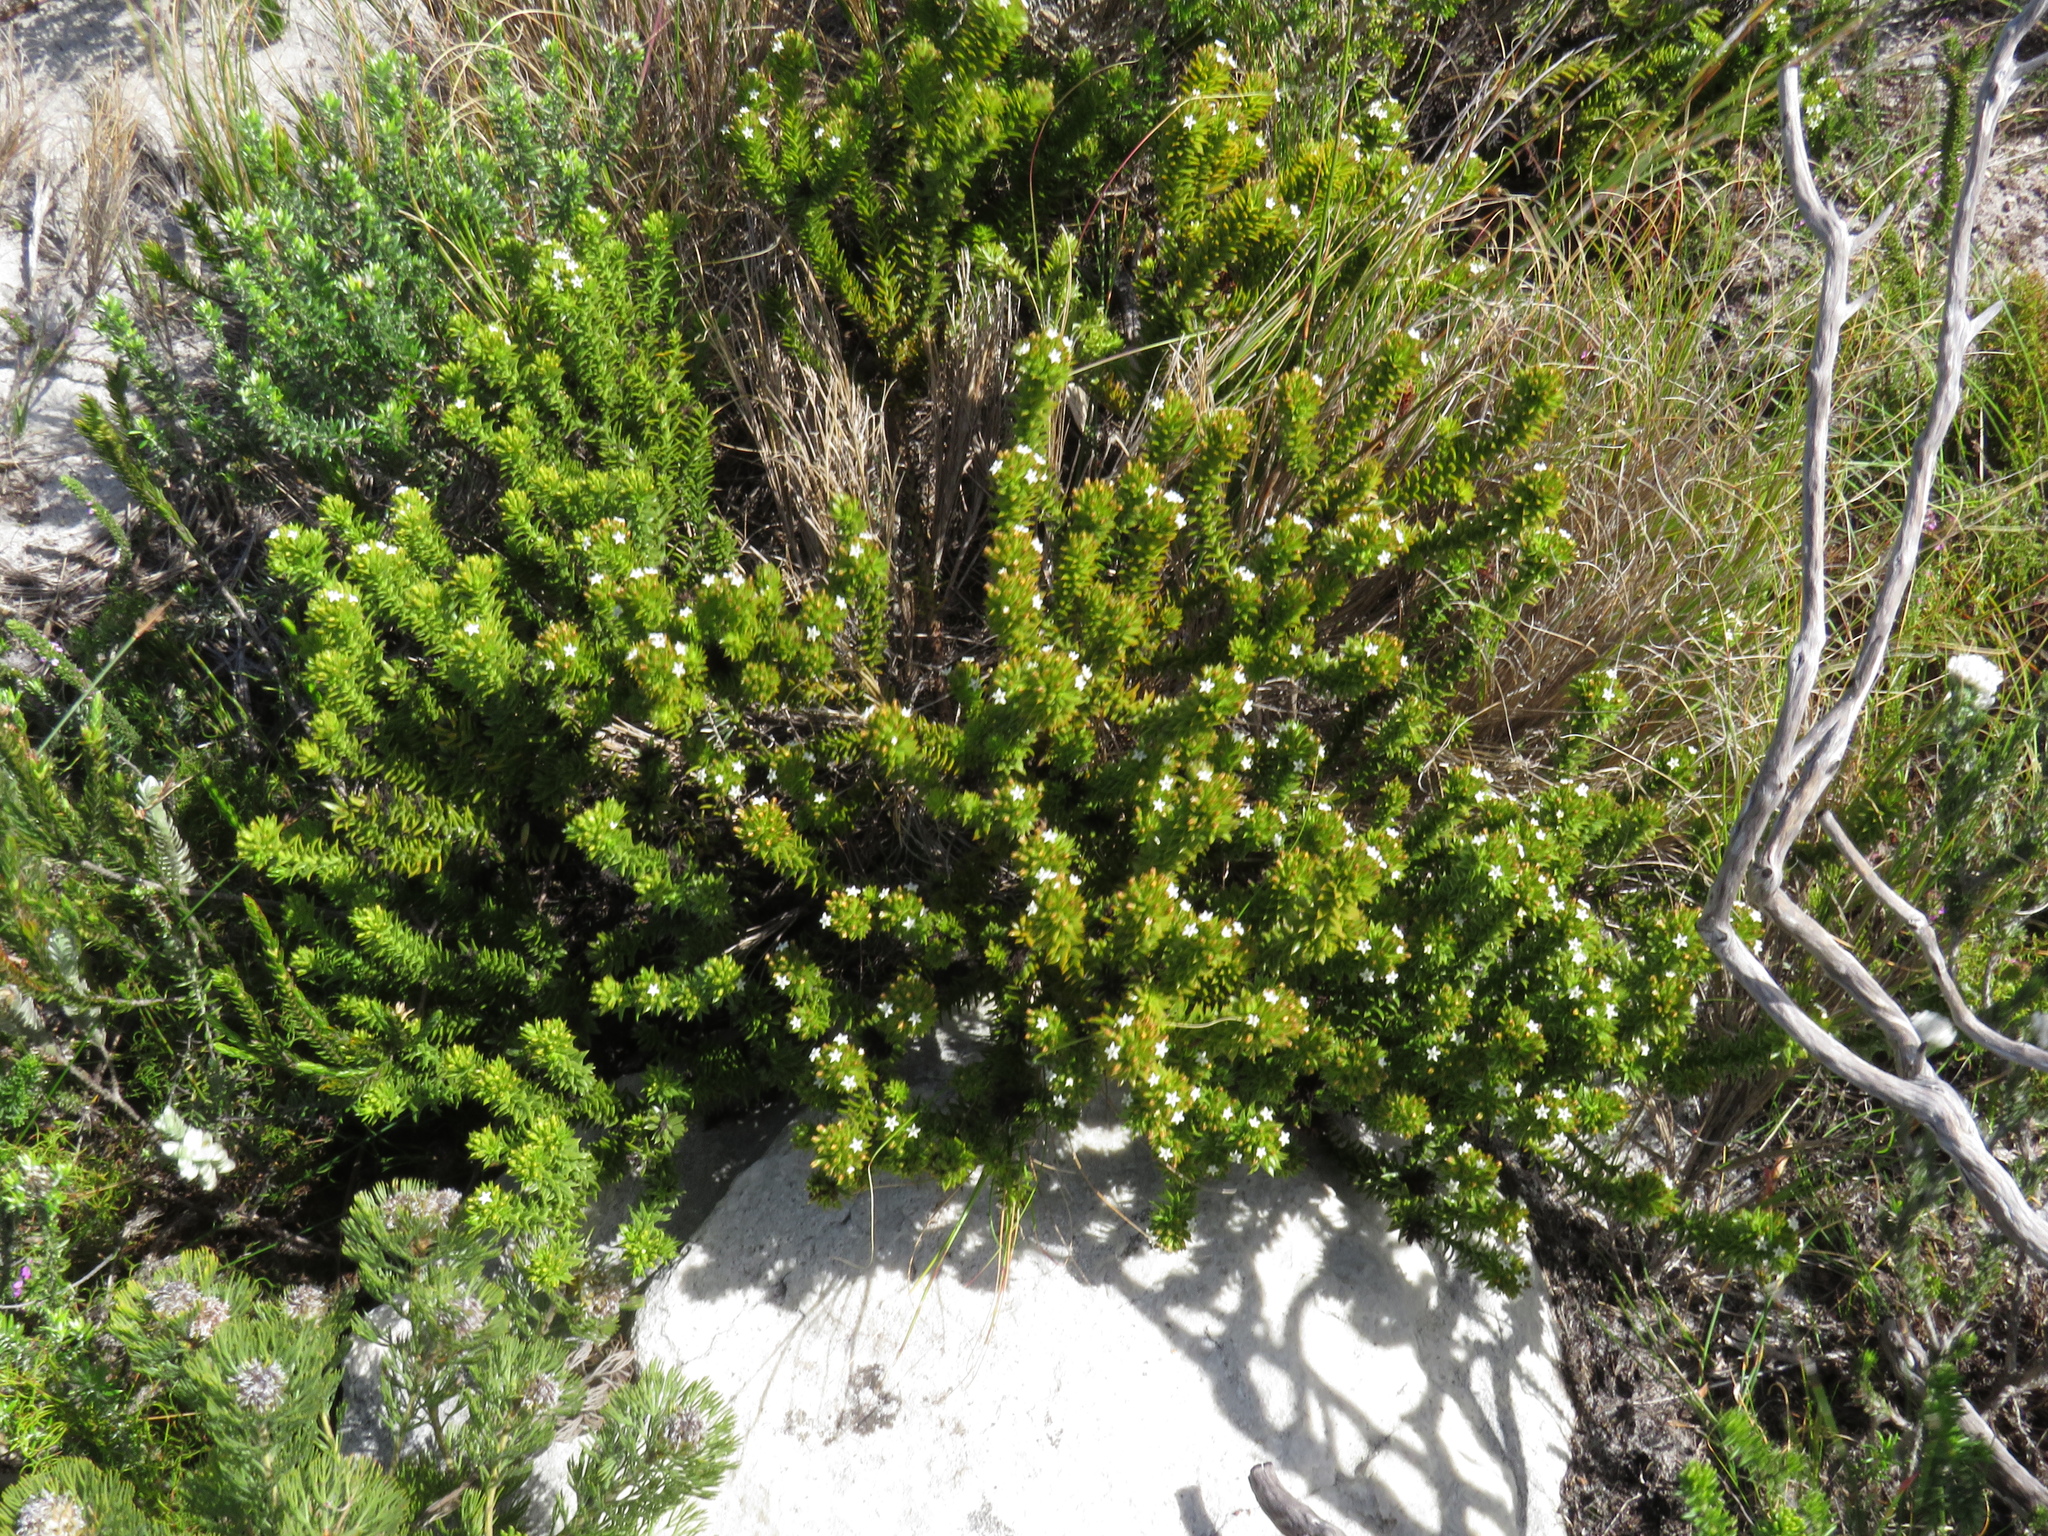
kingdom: Plantae
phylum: Tracheophyta
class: Magnoliopsida
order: Santalales
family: Thesiaceae
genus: Thesium
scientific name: Thesium viridifolium
